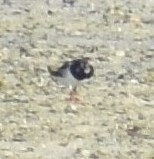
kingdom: Animalia
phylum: Chordata
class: Aves
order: Charadriiformes
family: Scolopacidae
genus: Arenaria
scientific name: Arenaria interpres
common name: Ruddy turnstone
